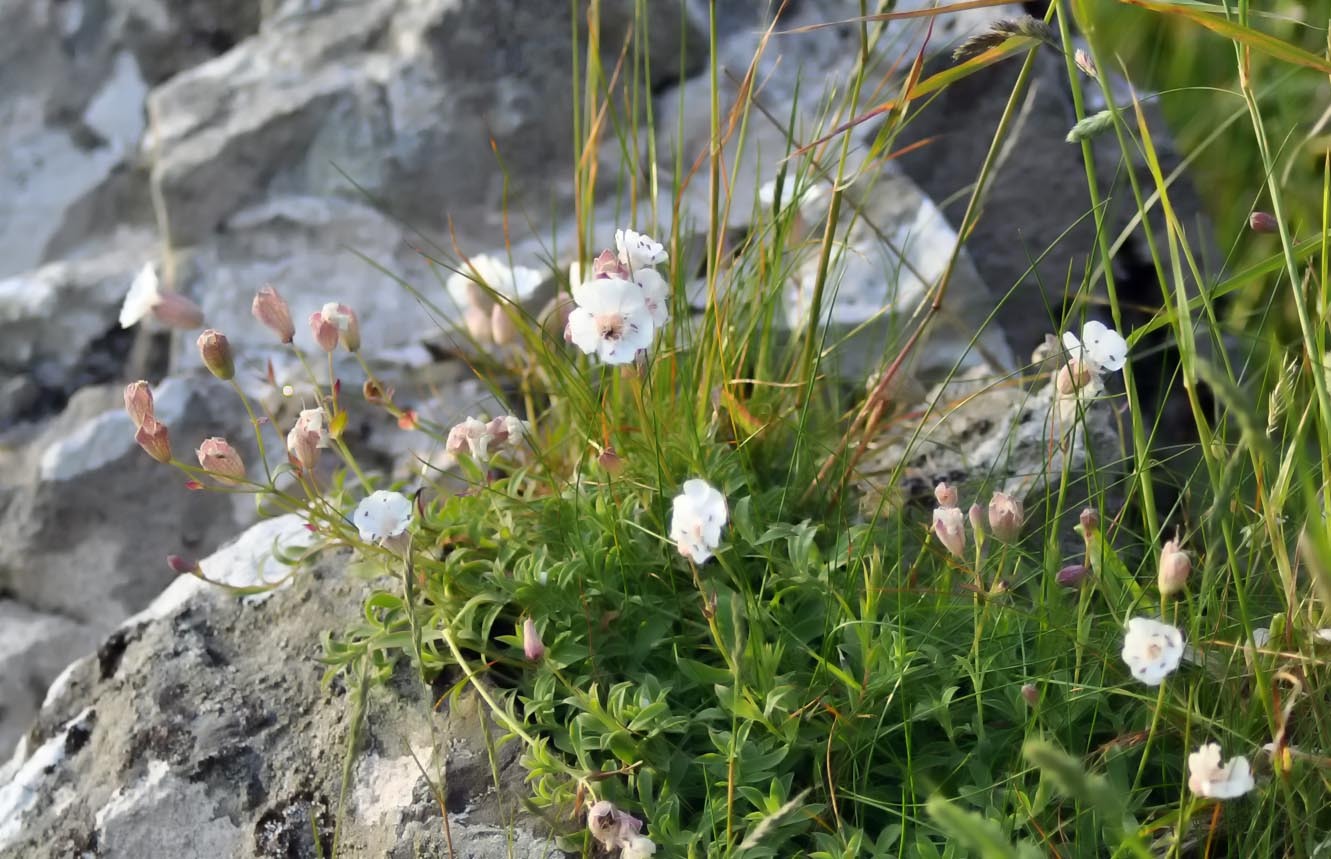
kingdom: Plantae
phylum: Tracheophyta
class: Magnoliopsida
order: Caryophyllales
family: Caryophyllaceae
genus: Silene
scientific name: Silene uniflora
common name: Sea campion
